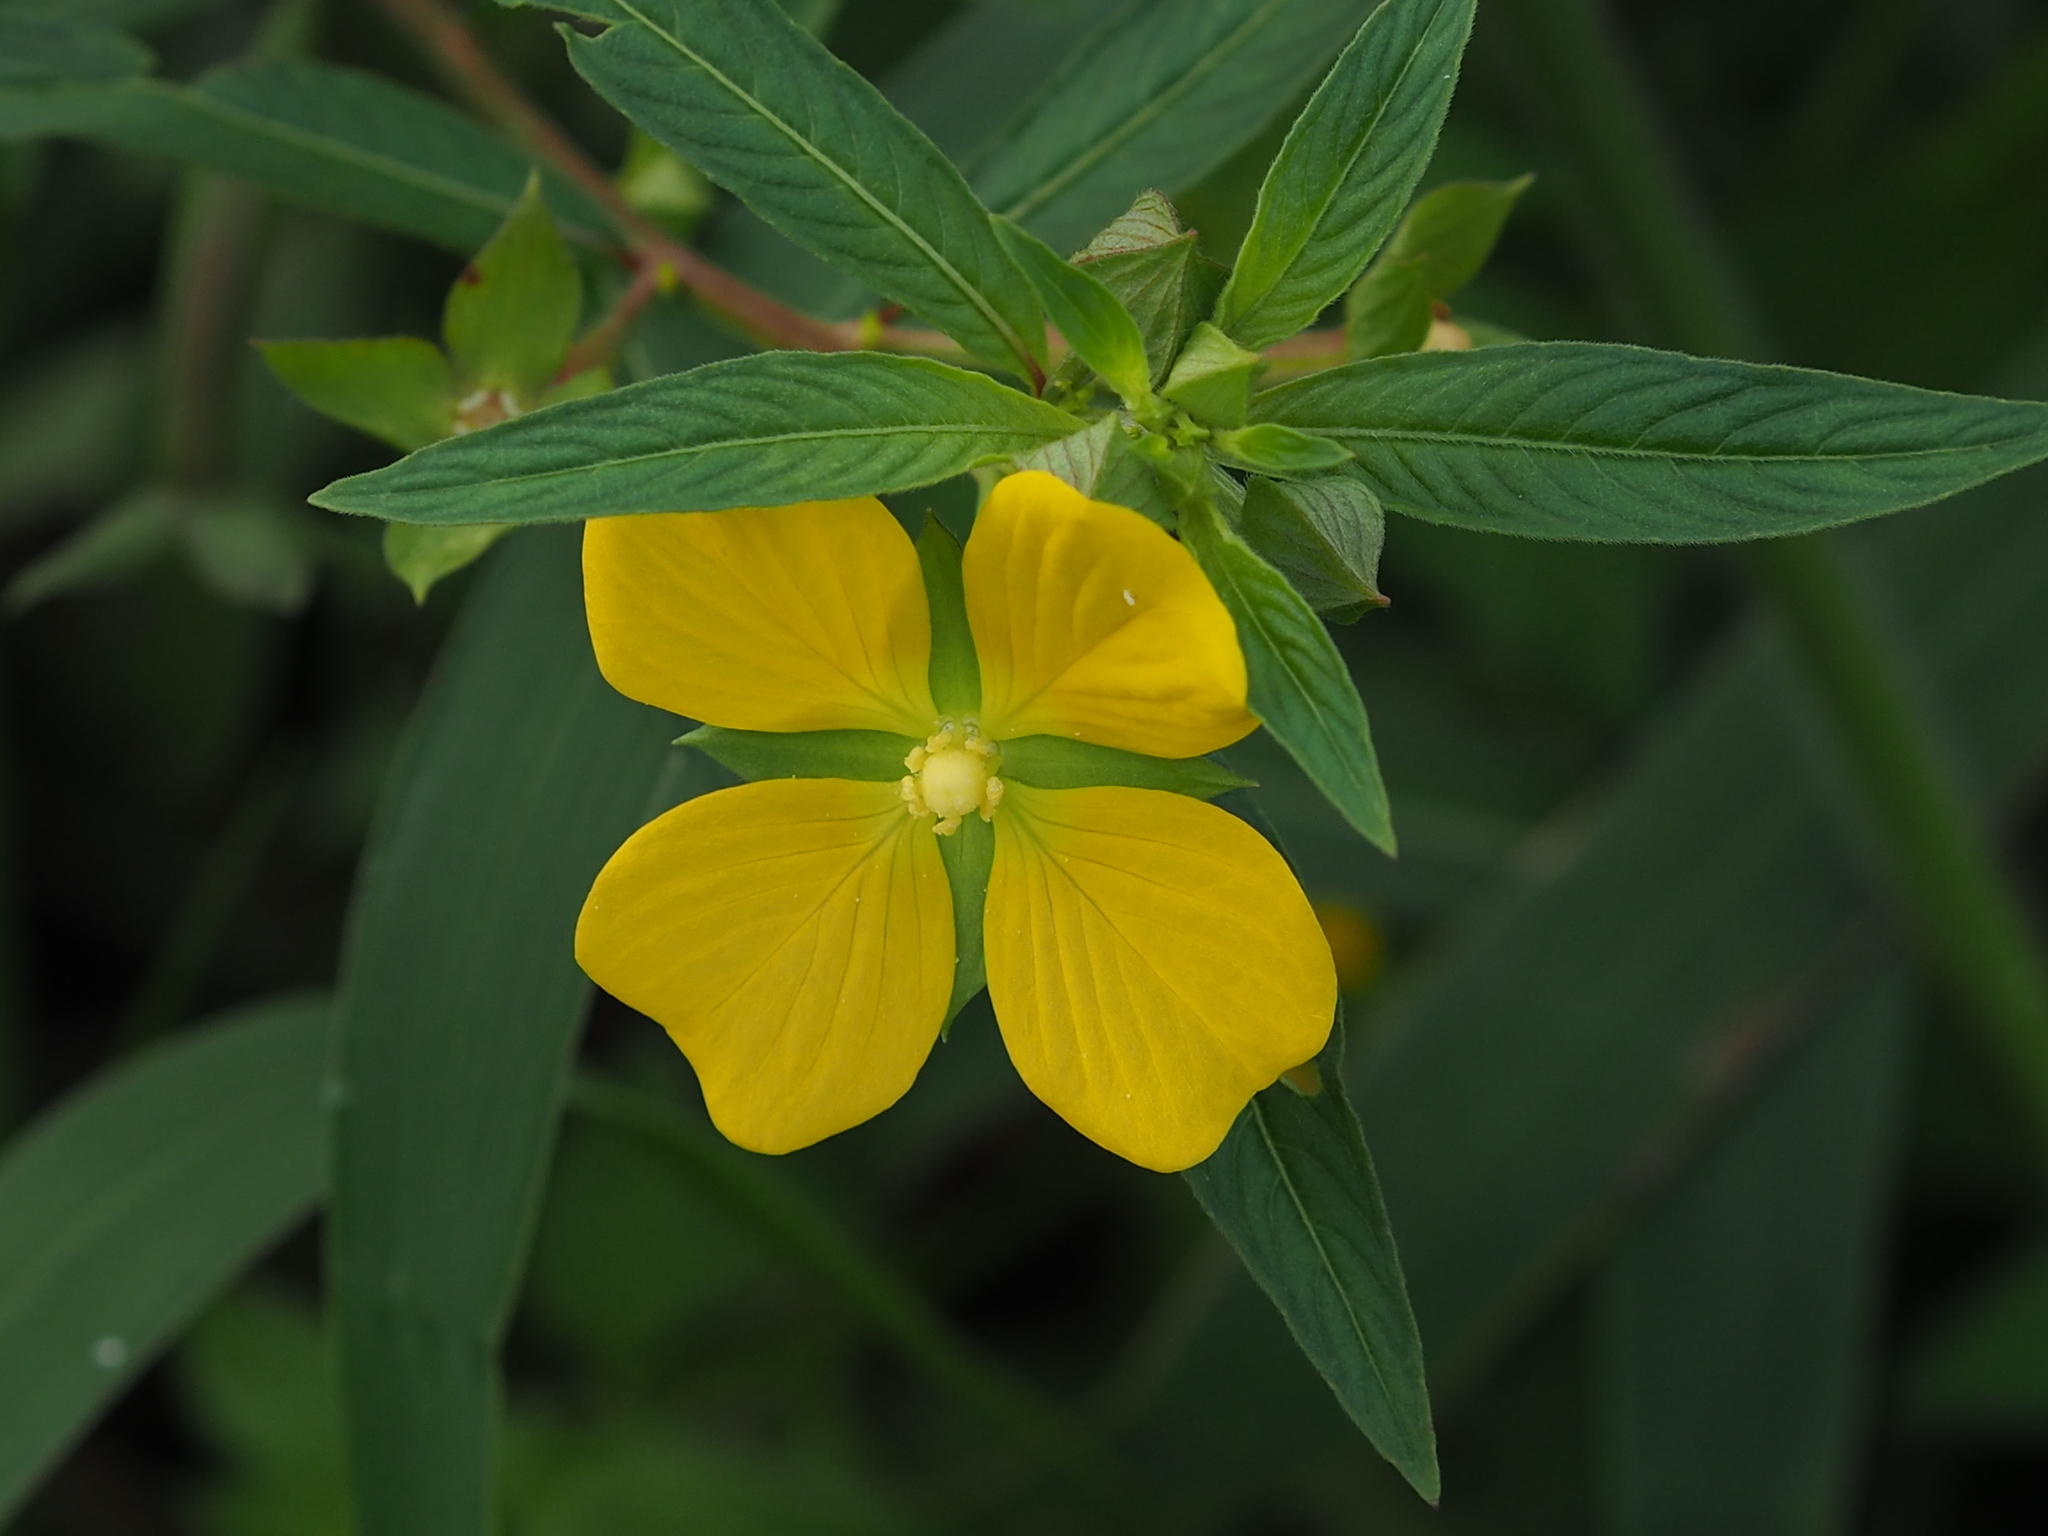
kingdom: Plantae
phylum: Tracheophyta
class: Magnoliopsida
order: Myrtales
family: Onagraceae
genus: Ludwigia
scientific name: Ludwigia octovalvis
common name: Water-primrose
